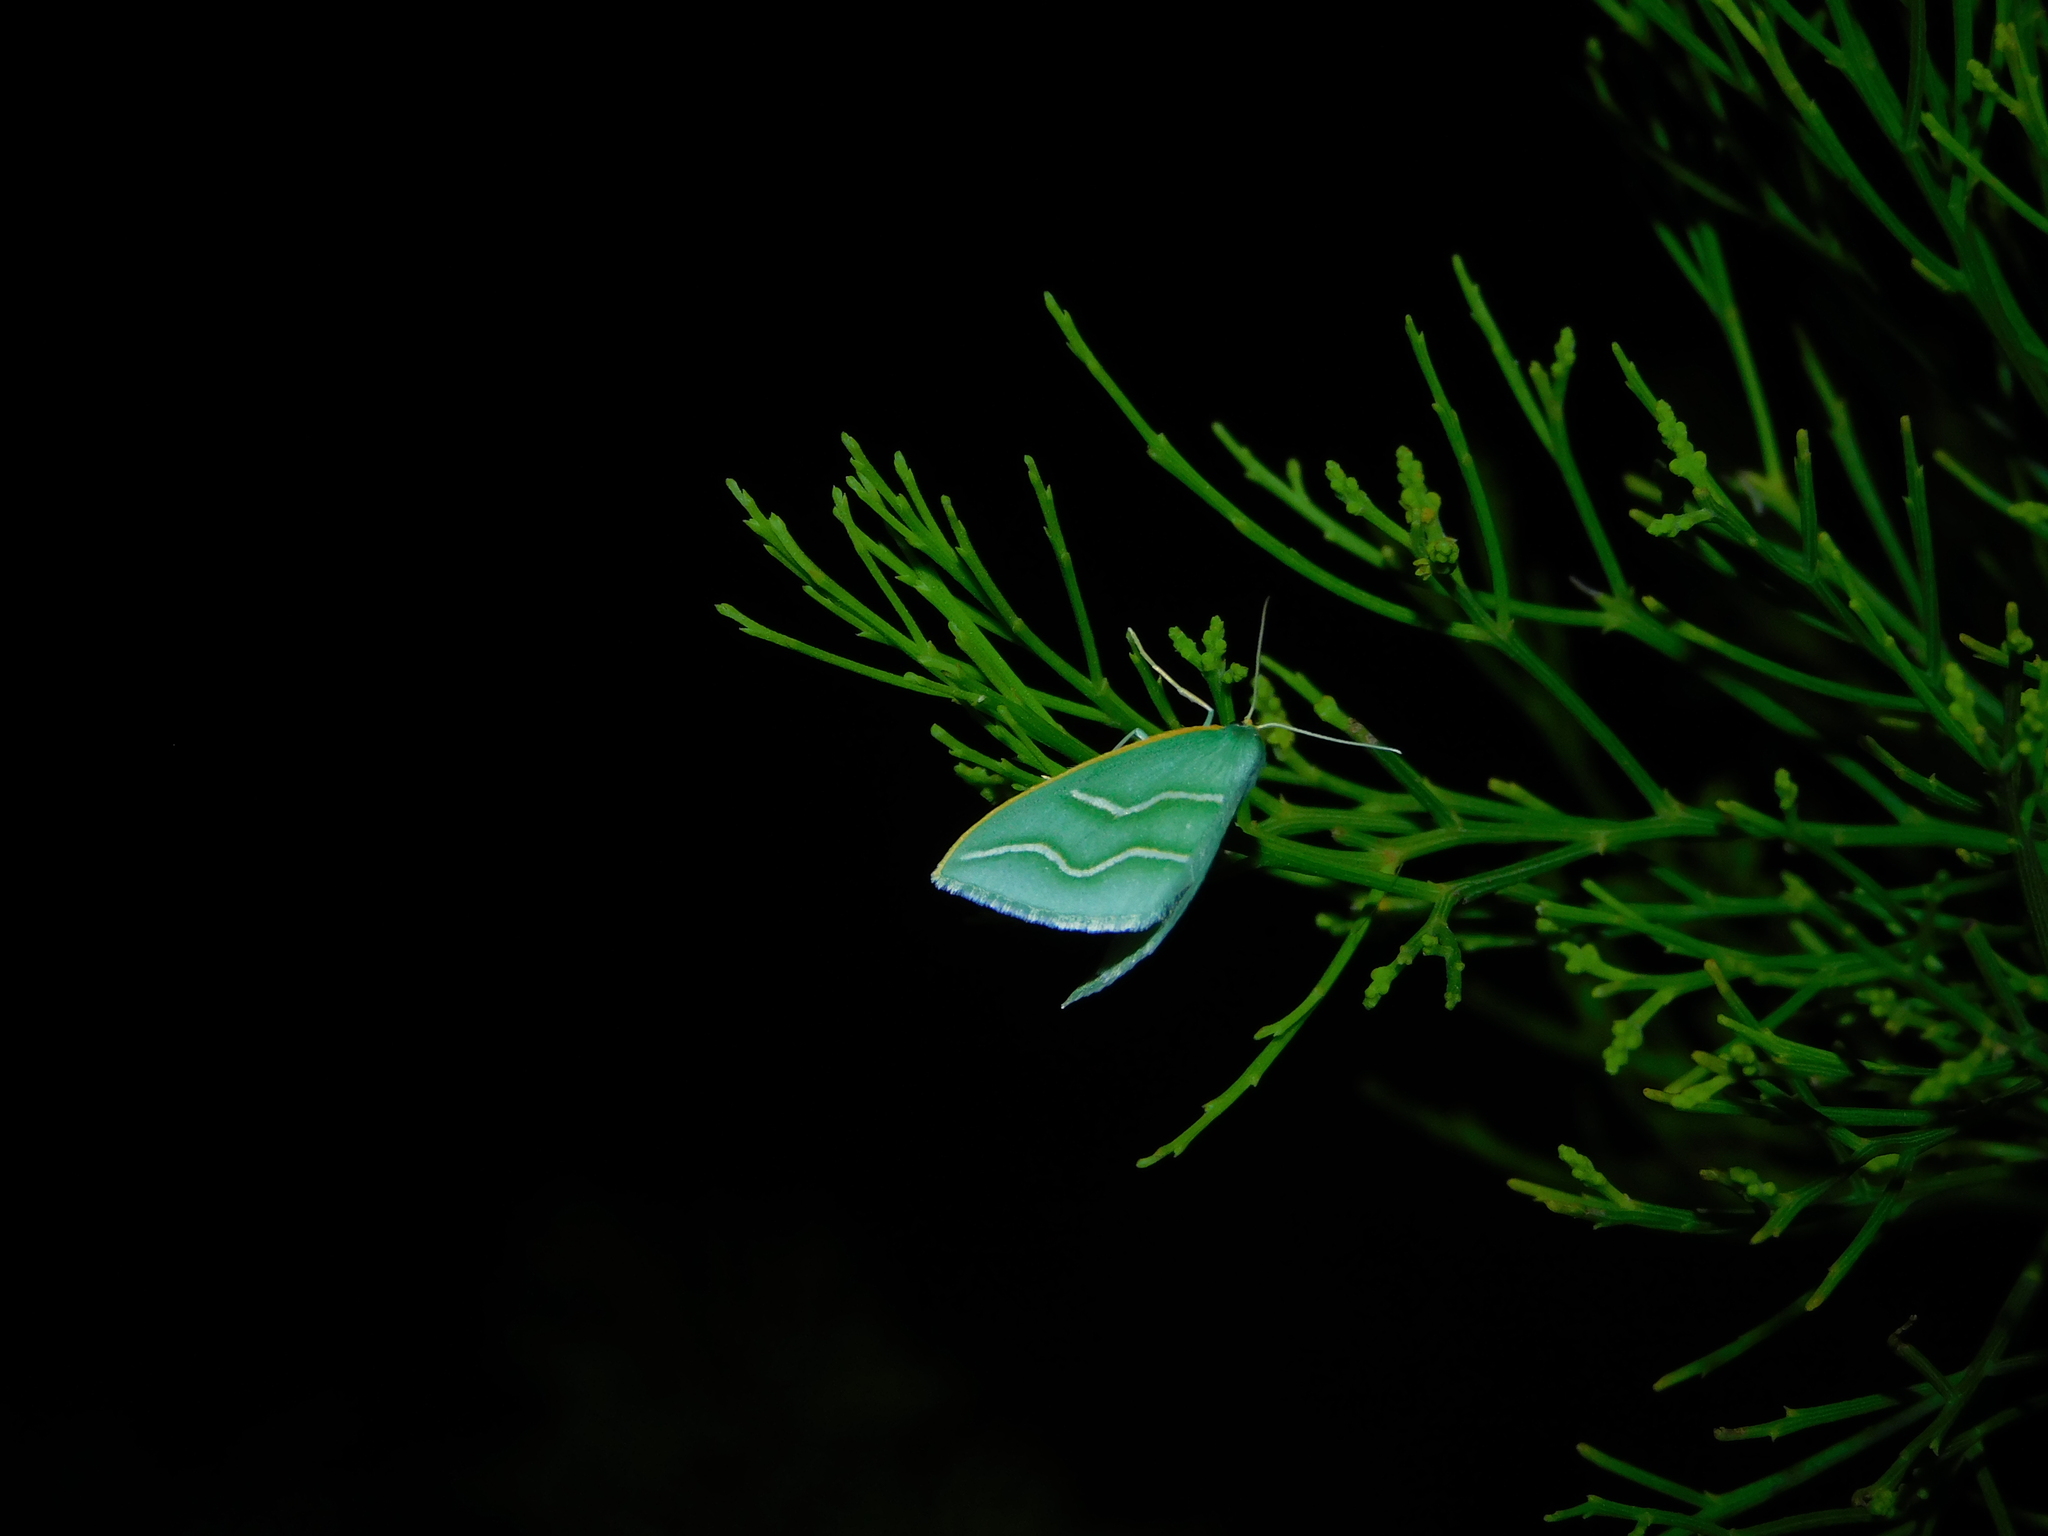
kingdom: Animalia
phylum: Arthropoda
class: Insecta
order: Lepidoptera
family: Geometridae
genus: Euloxia
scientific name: Euloxia meandraria
